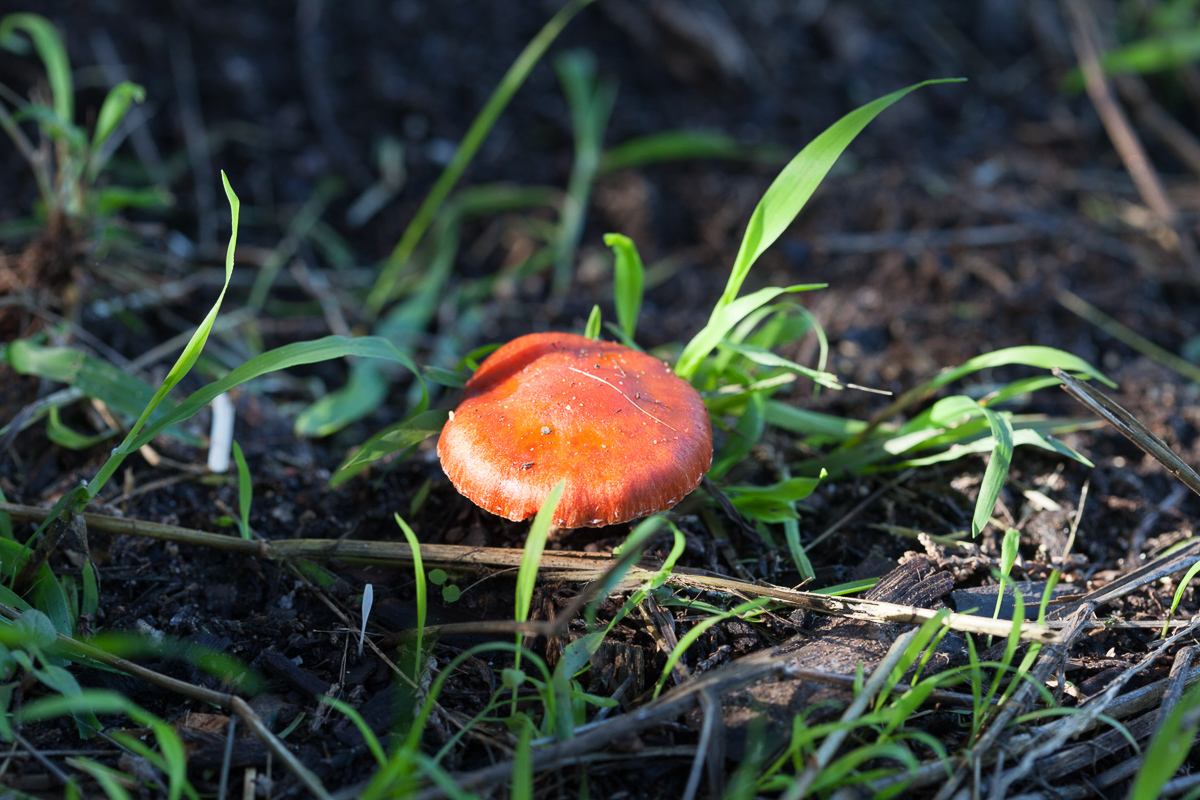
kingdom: Fungi
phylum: Basidiomycota
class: Agaricomycetes
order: Agaricales
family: Strophariaceae
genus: Leratiomyces
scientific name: Leratiomyces ceres
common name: Redlead roundhead
